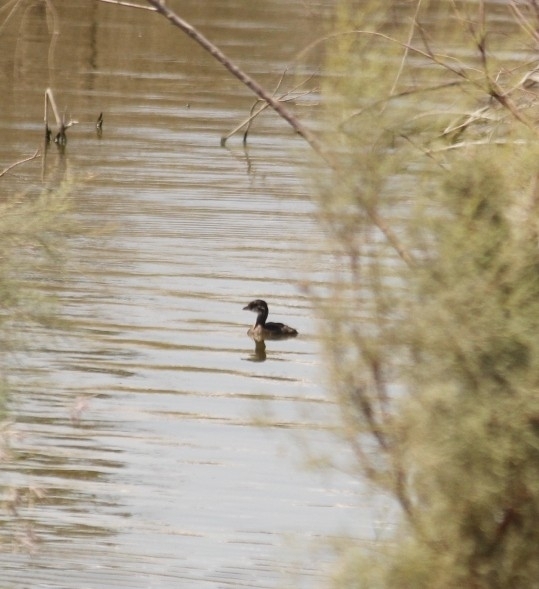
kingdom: Animalia
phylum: Chordata
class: Aves
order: Podicipediformes
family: Podicipedidae
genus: Podilymbus
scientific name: Podilymbus podiceps
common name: Pied-billed grebe
